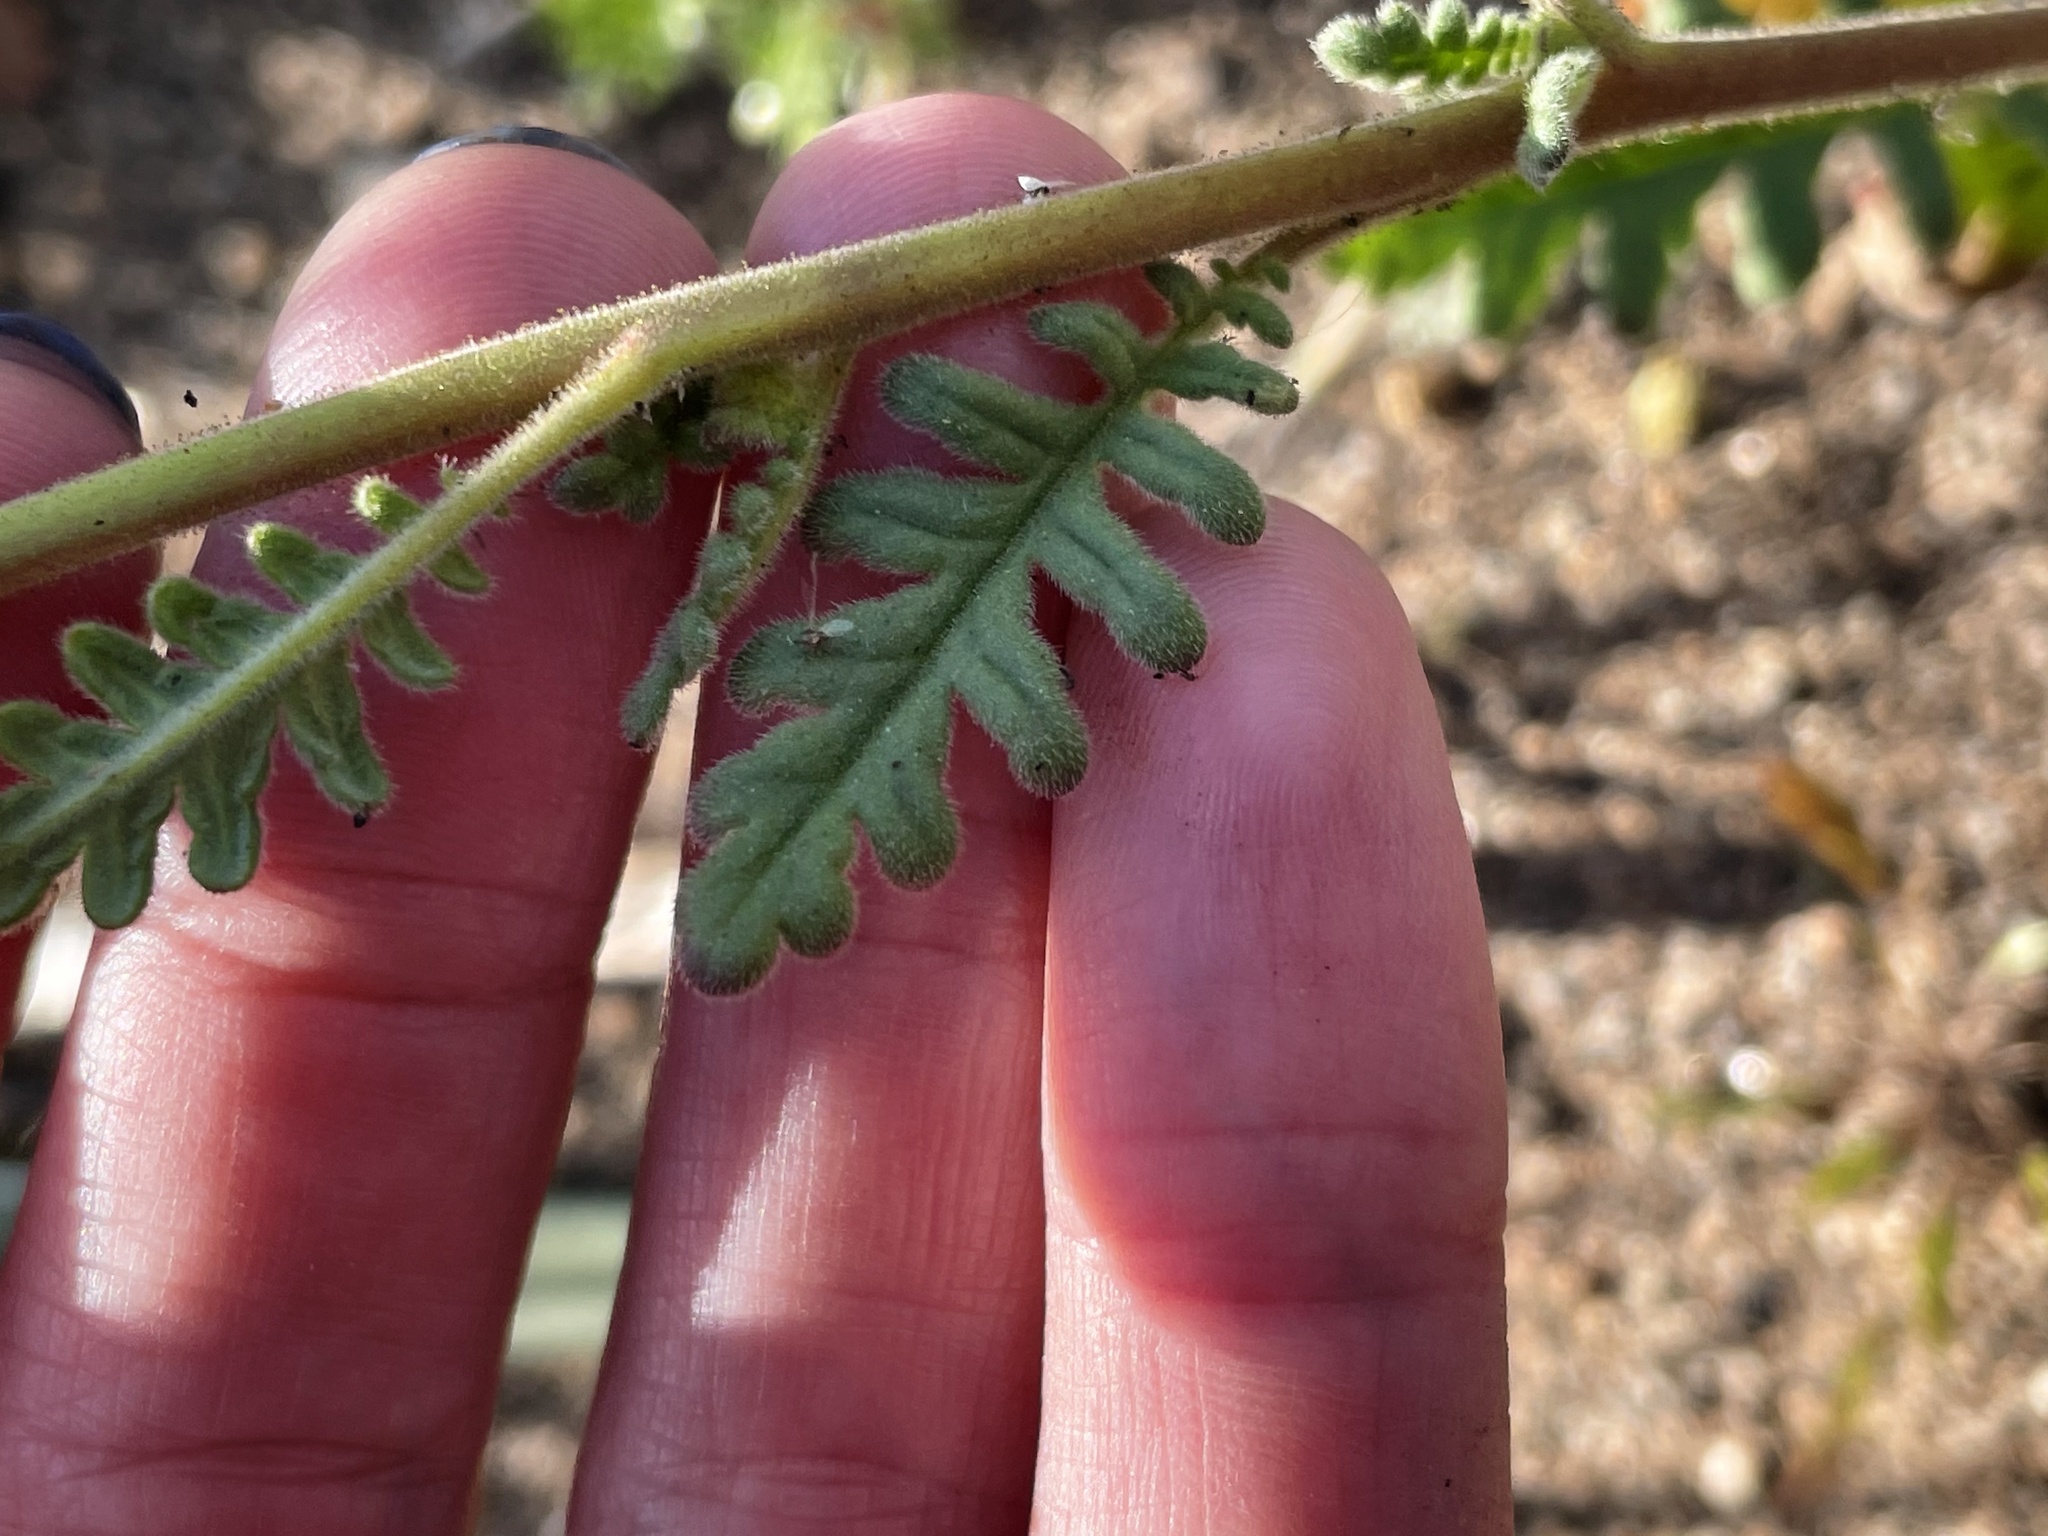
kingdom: Plantae
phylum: Tracheophyta
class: Magnoliopsida
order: Boraginales
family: Hydrophyllaceae
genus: Phacelia
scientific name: Phacelia brachyloba
